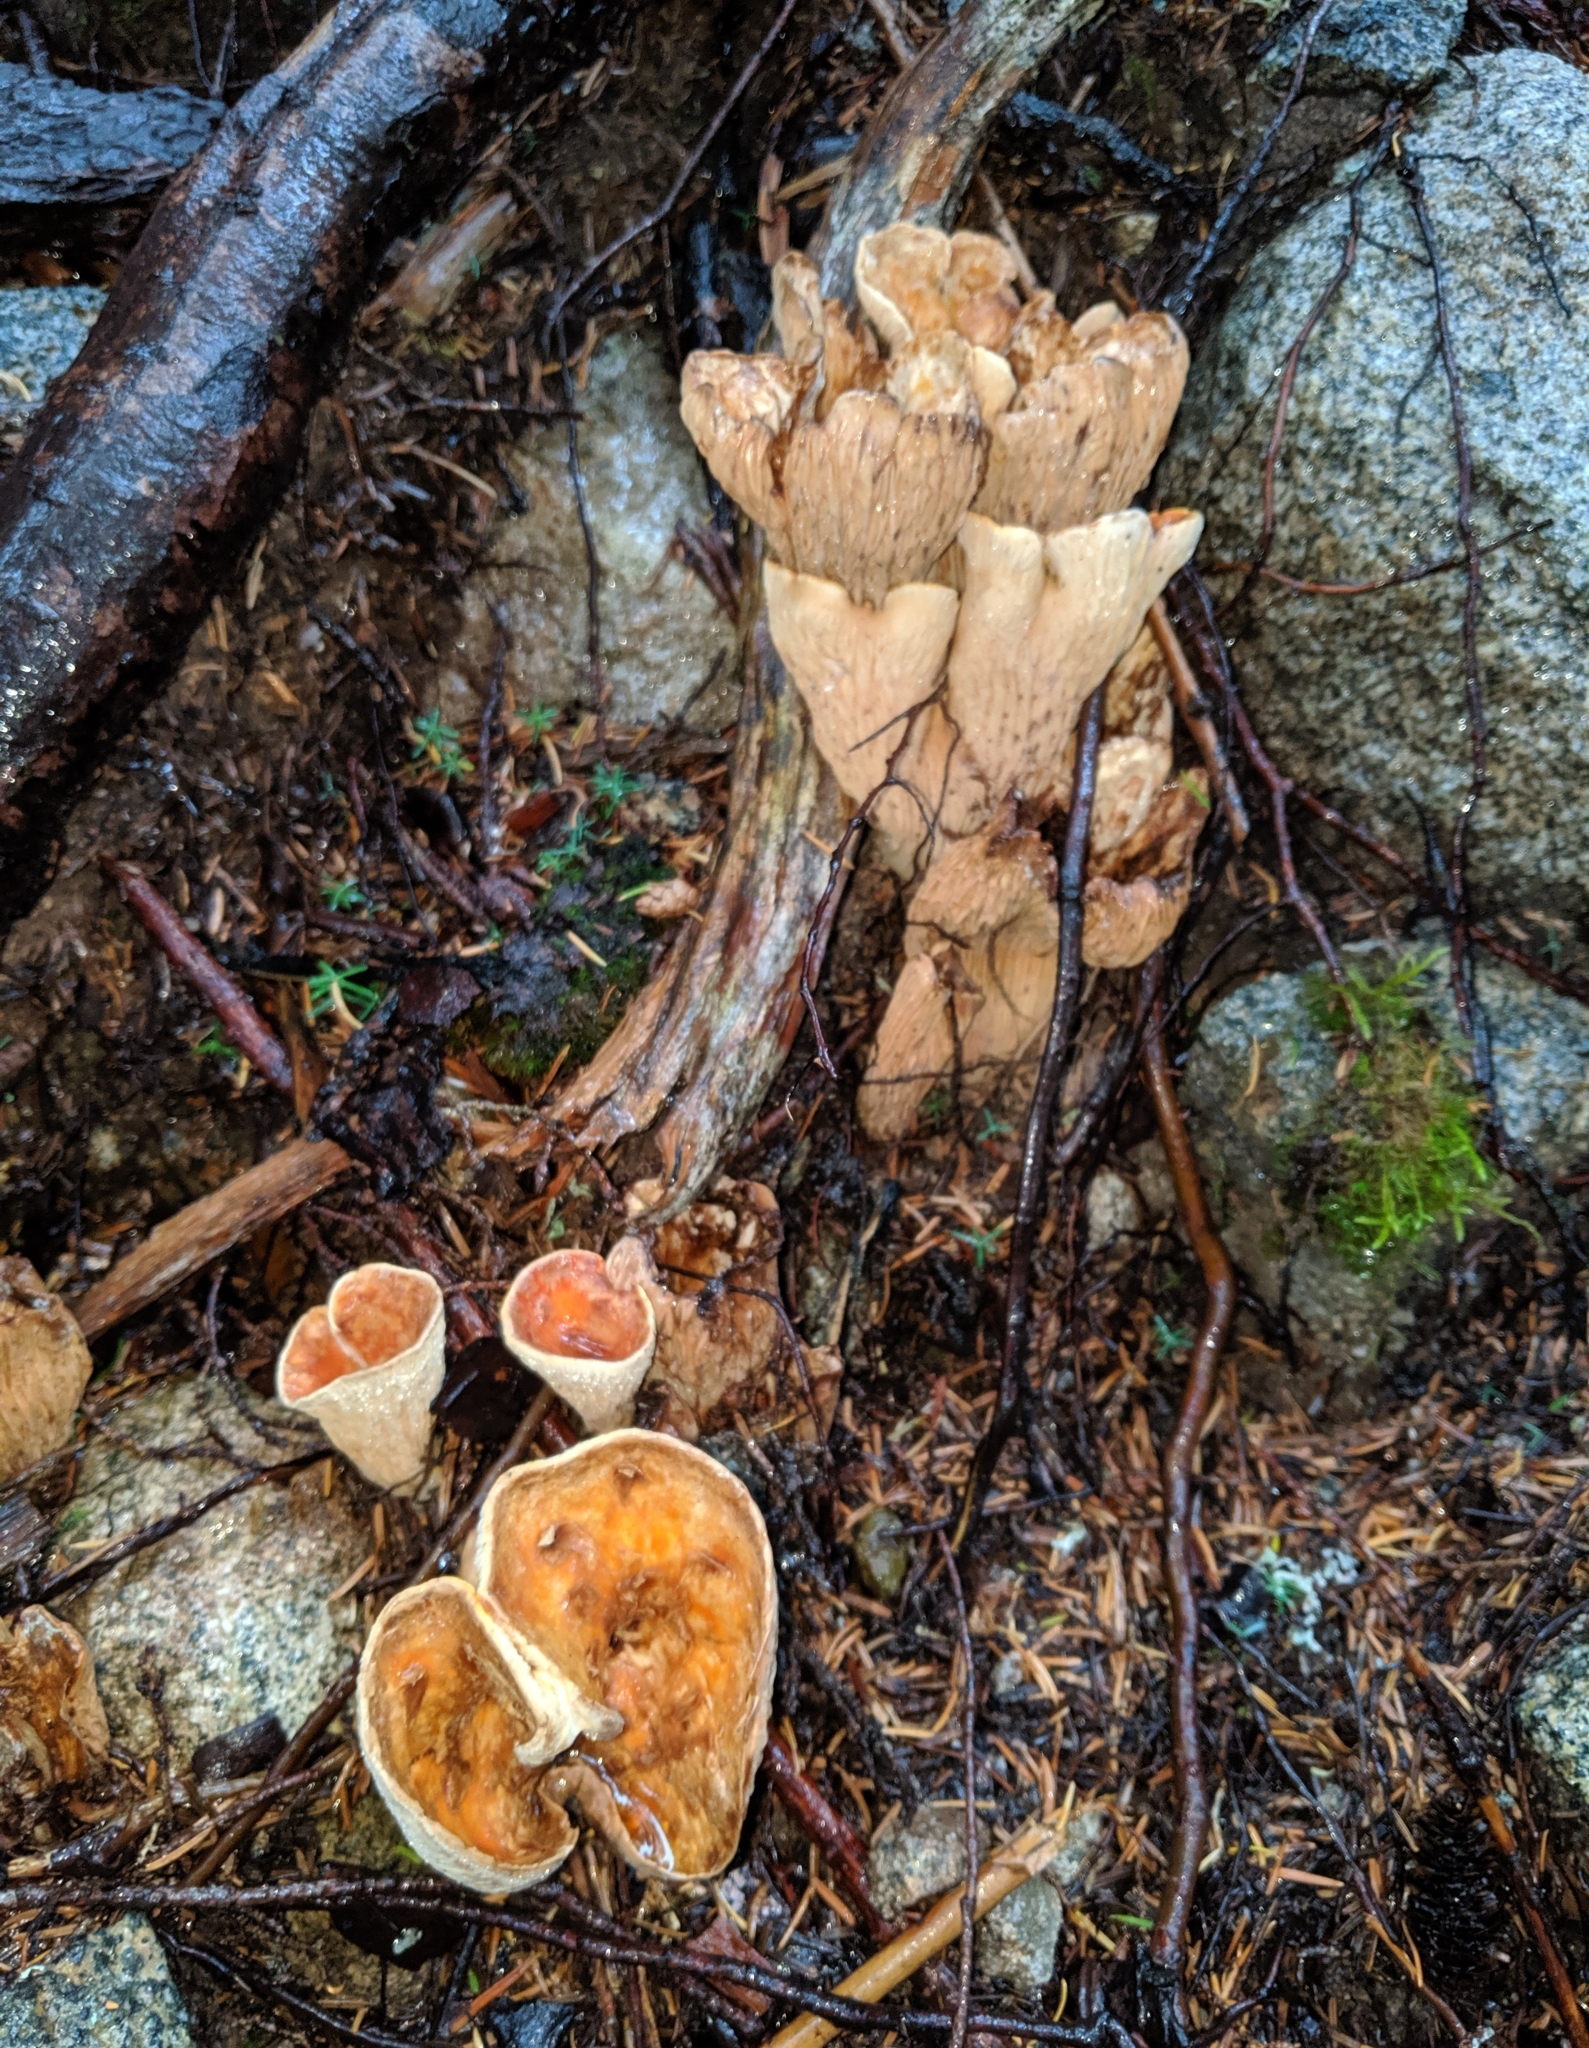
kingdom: Fungi
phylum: Basidiomycota
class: Agaricomycetes
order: Gomphales
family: Gomphaceae
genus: Turbinellus
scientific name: Turbinellus floccosus
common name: Scaly chanterelle
